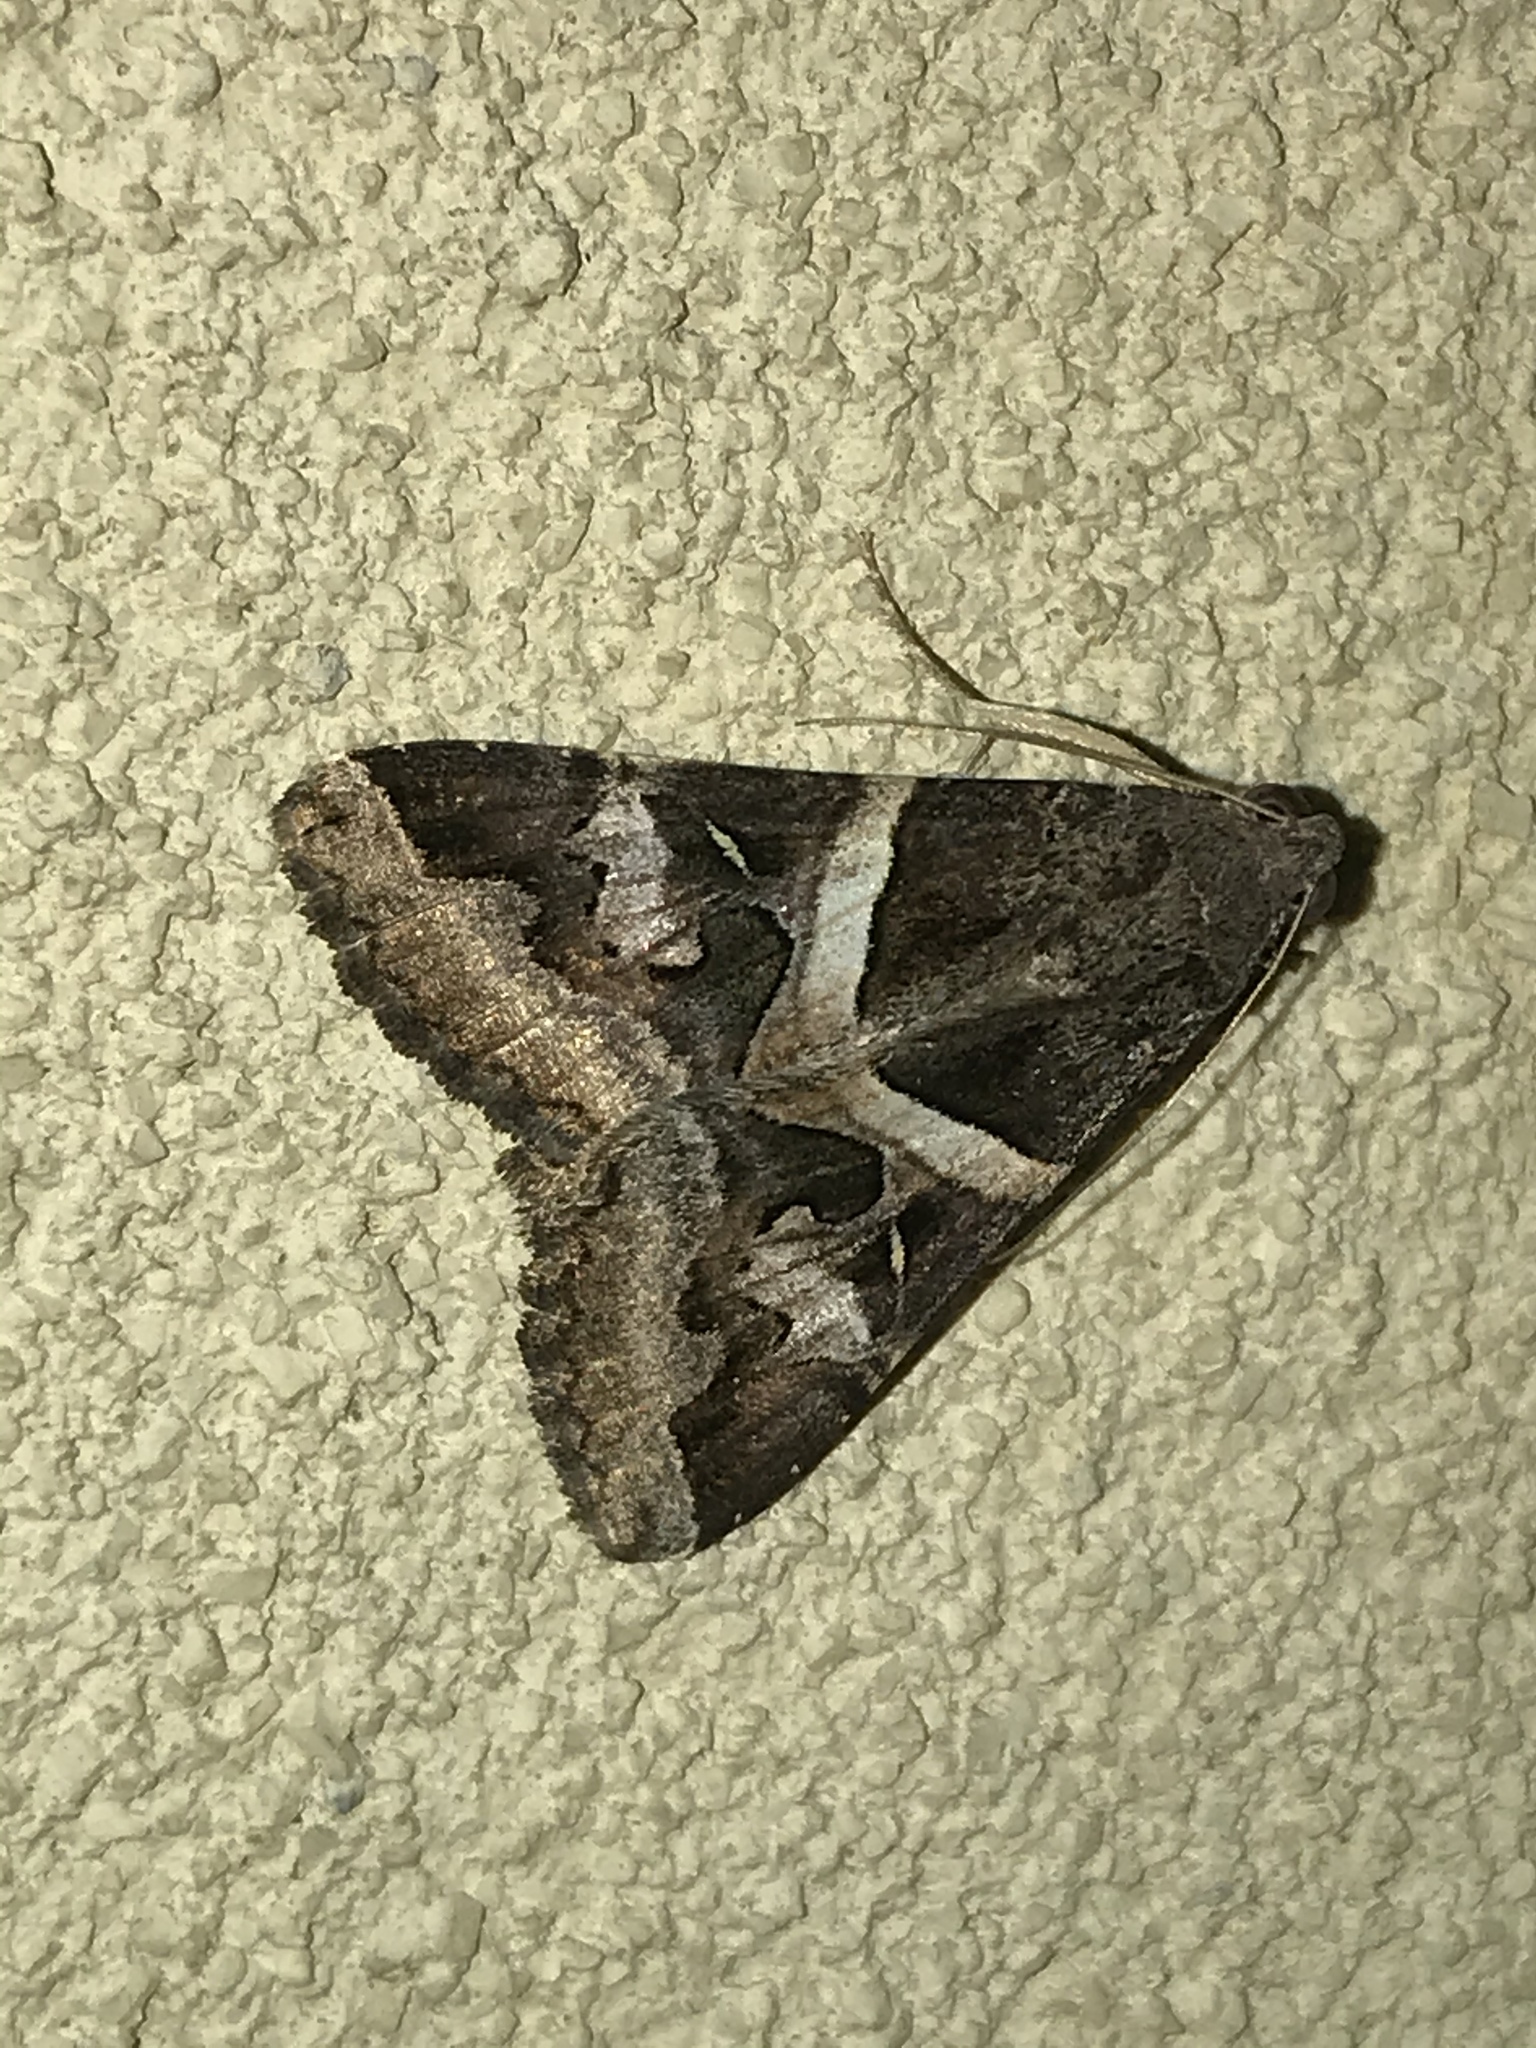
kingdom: Animalia
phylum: Arthropoda
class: Insecta
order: Lepidoptera
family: Erebidae
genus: Melipotis
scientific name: Melipotis indomita
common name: Moth
